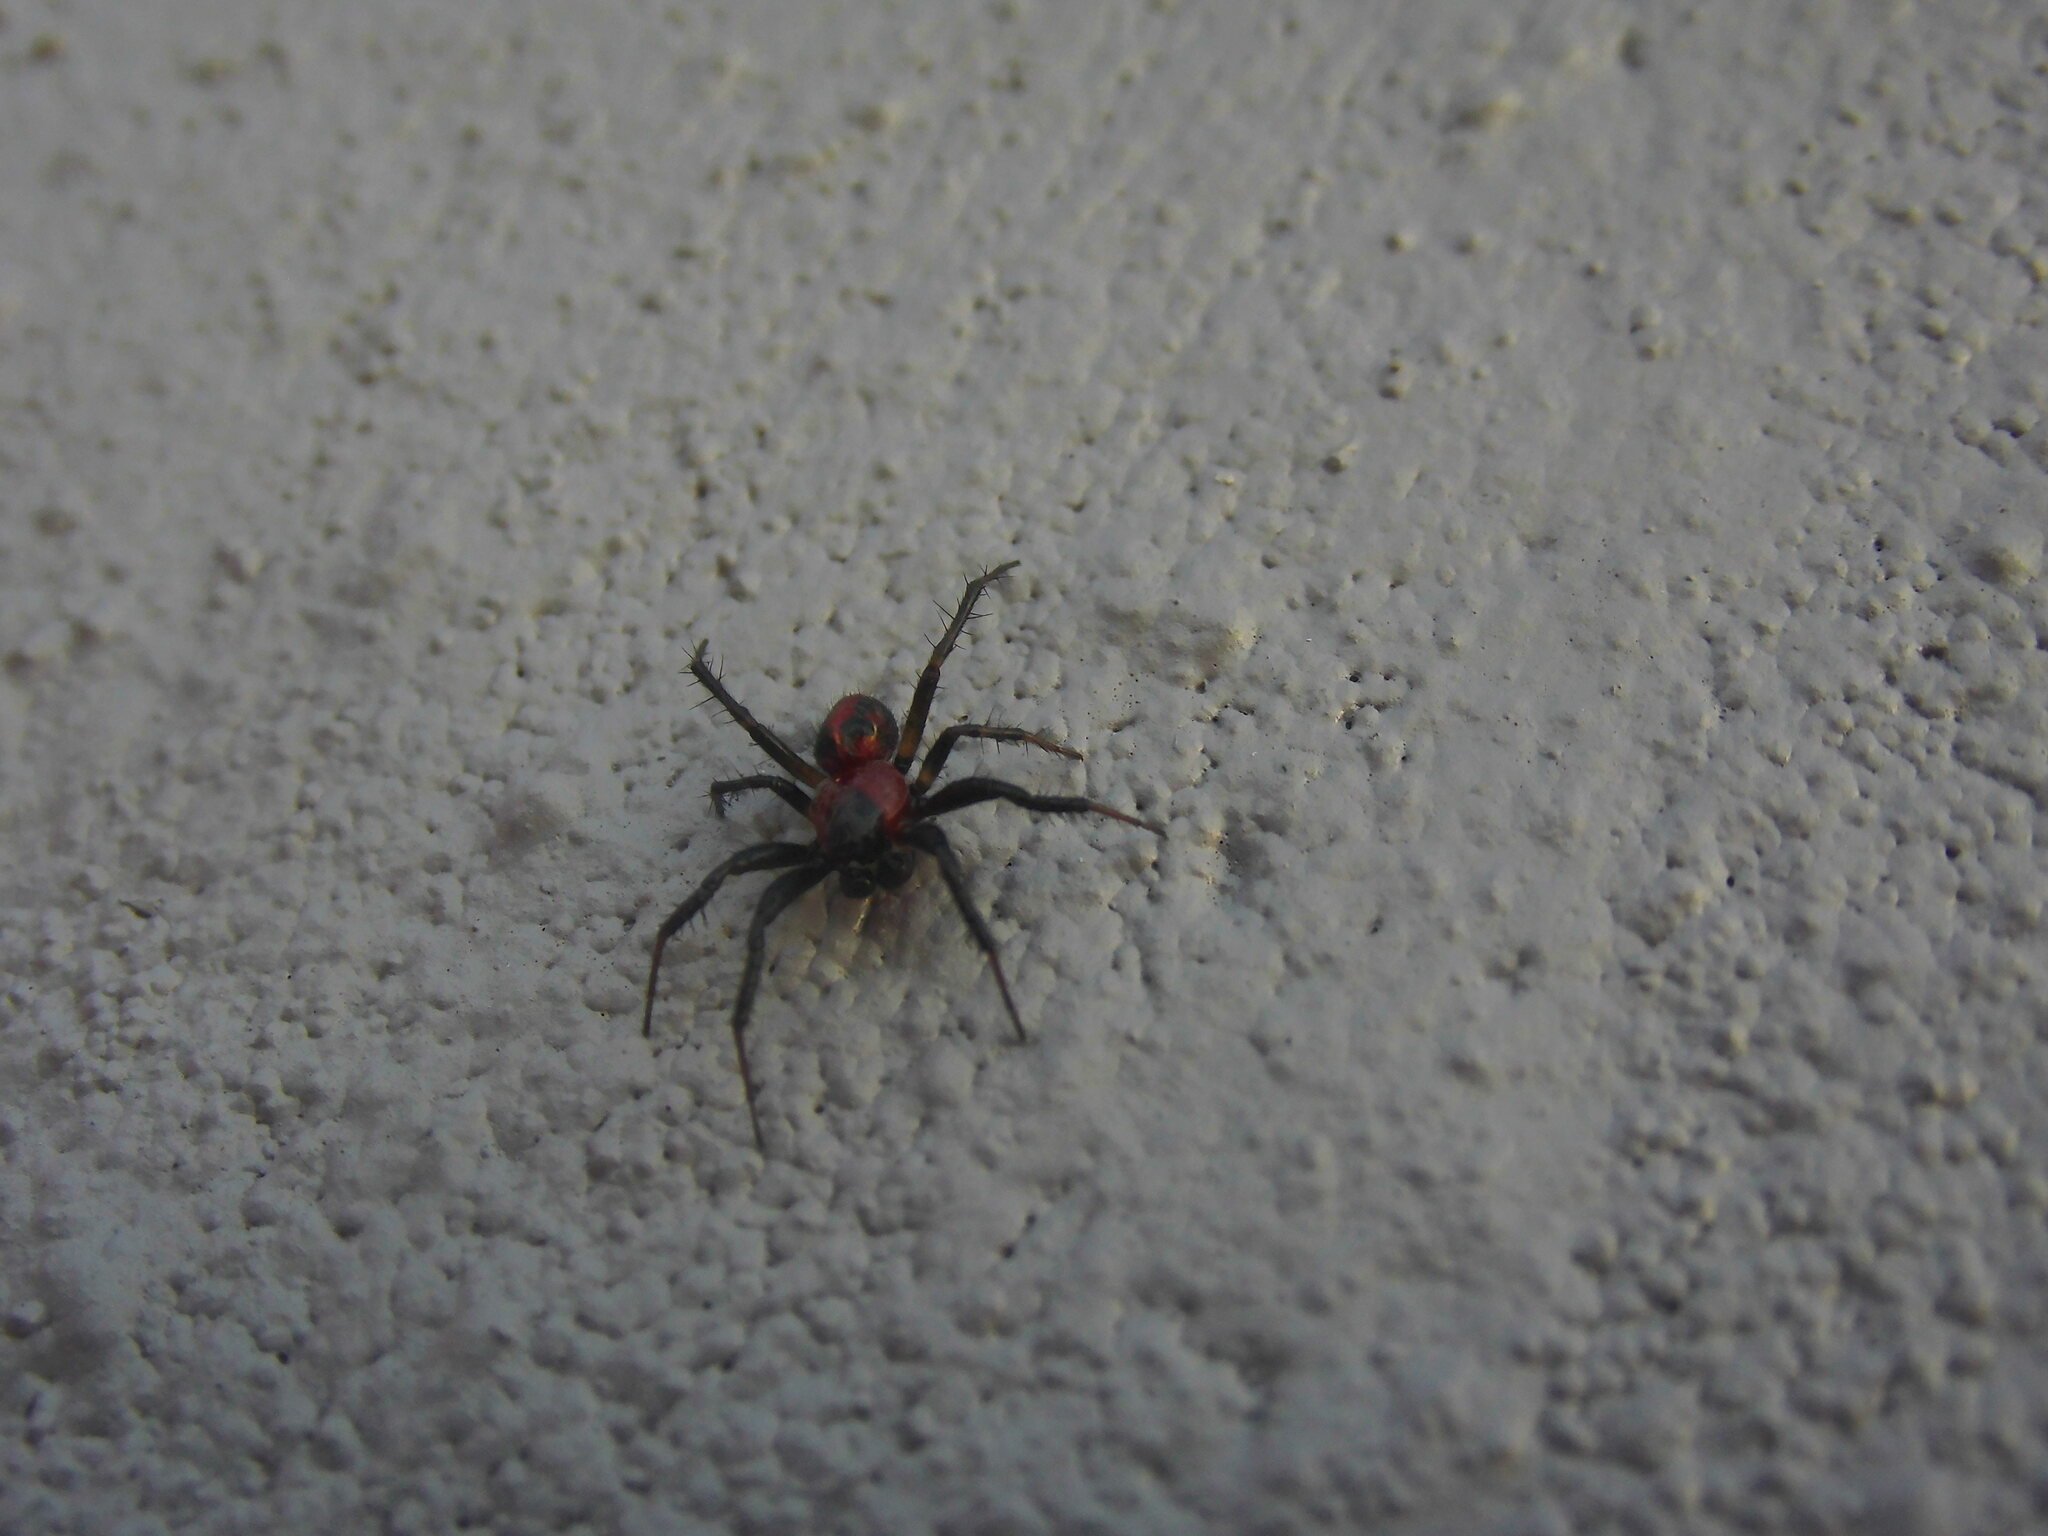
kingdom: Animalia
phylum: Arthropoda
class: Arachnida
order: Araneae
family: Araneidae
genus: Alpaida
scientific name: Alpaida versicolor
